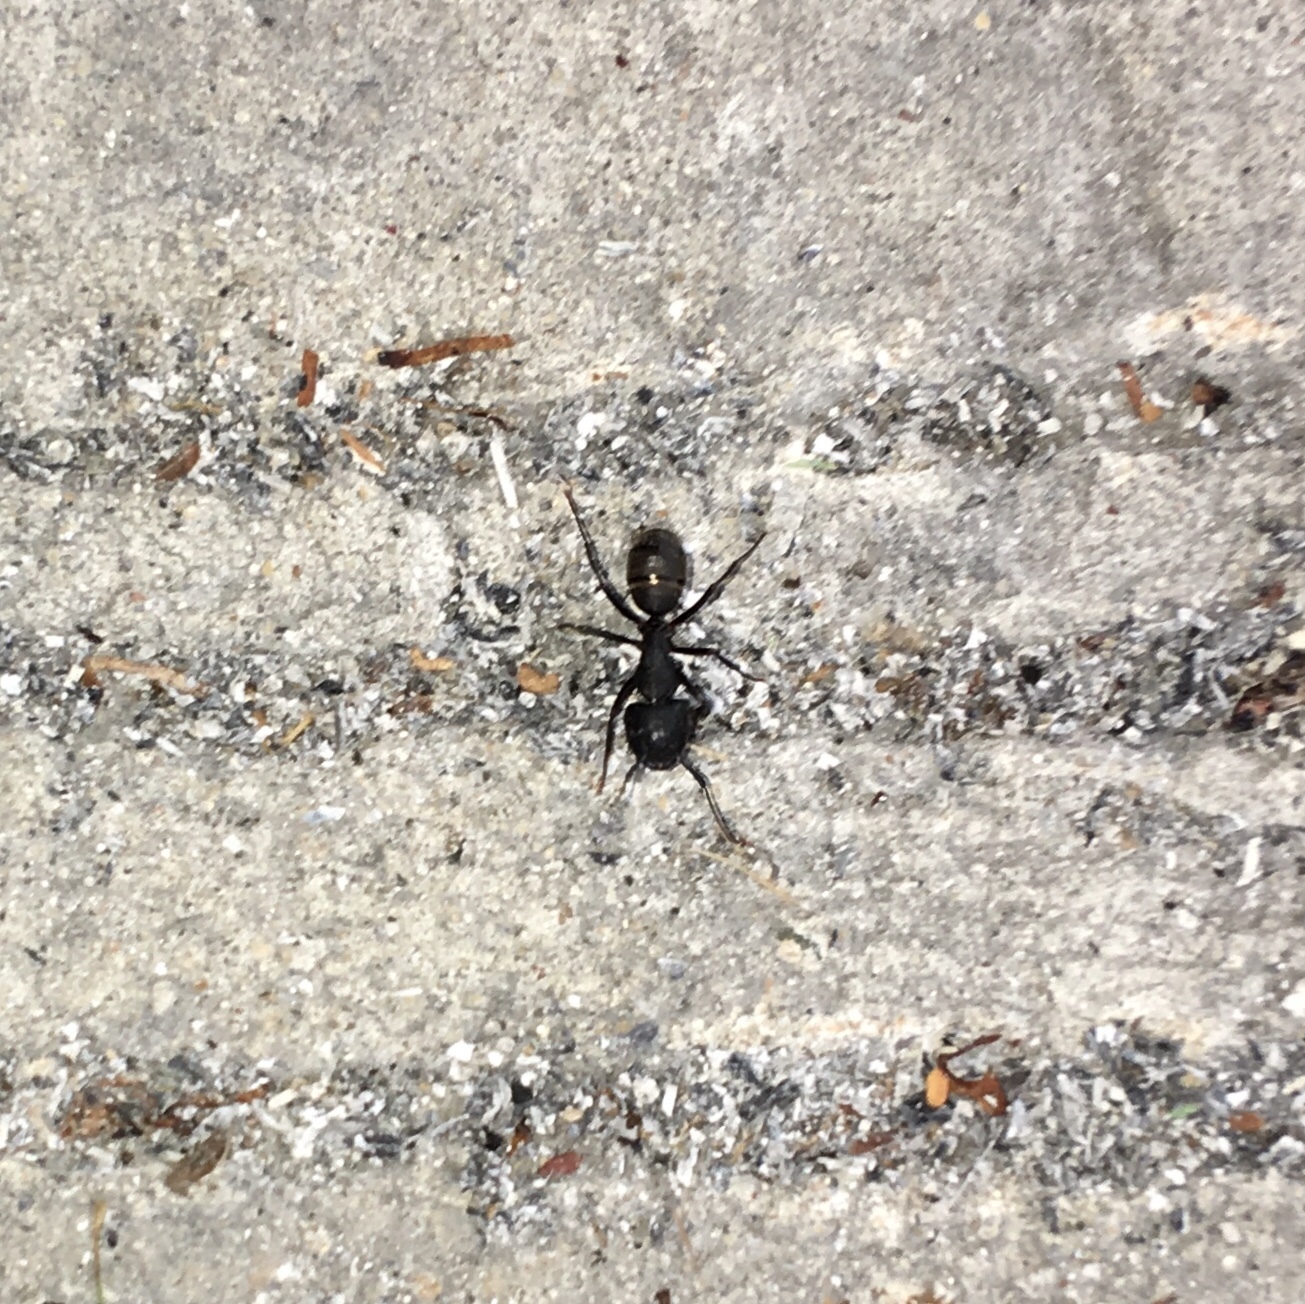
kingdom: Animalia
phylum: Arthropoda
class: Insecta
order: Hymenoptera
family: Formicidae
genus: Camponotus
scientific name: Camponotus pennsylvanicus
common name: Black carpenter ant
